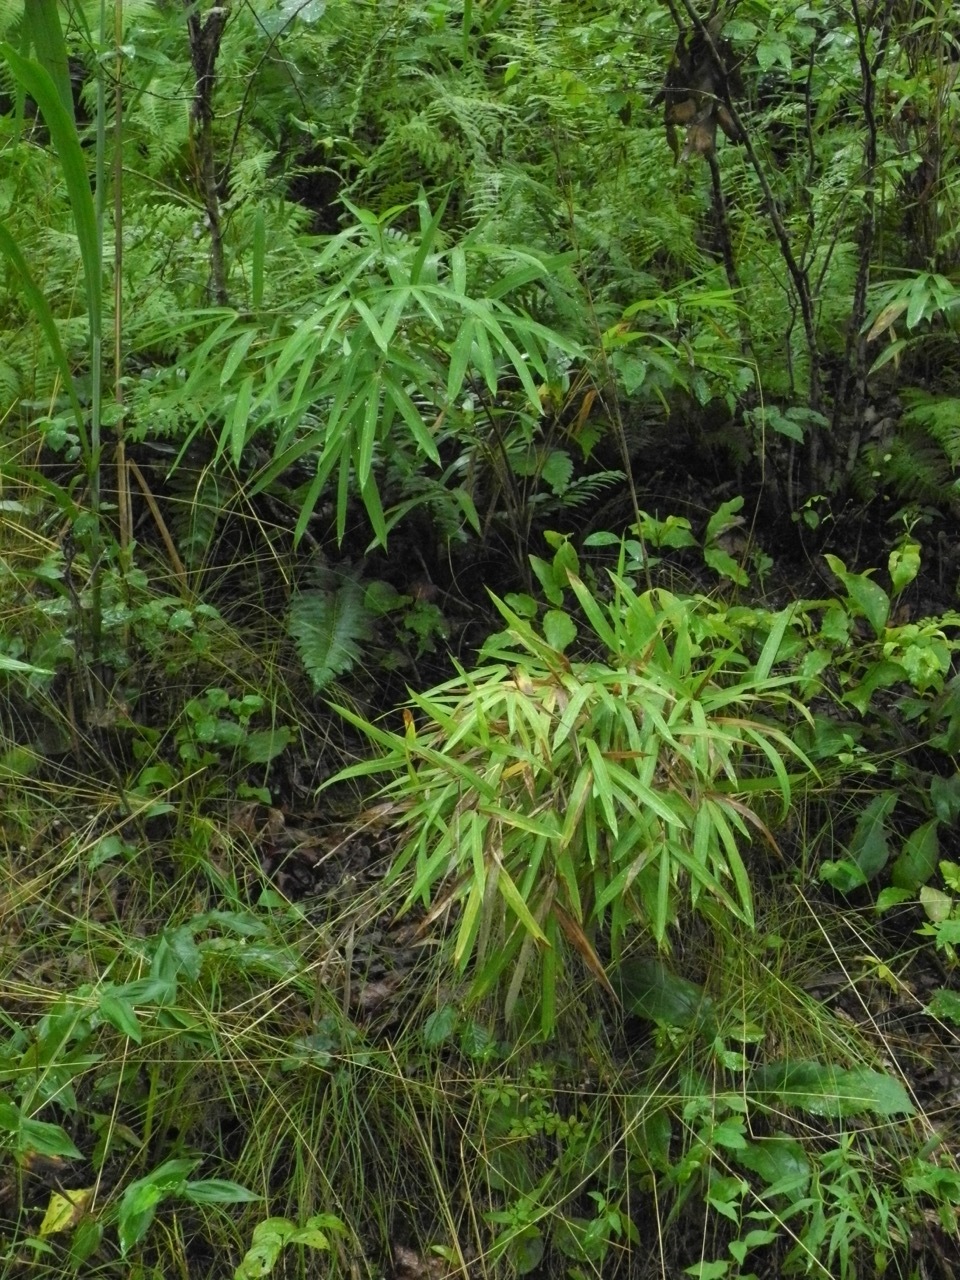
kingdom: Plantae
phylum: Tracheophyta
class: Liliopsida
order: Poales
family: Poaceae
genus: Arundinaria
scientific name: Arundinaria appalachiana
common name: Hill cane
